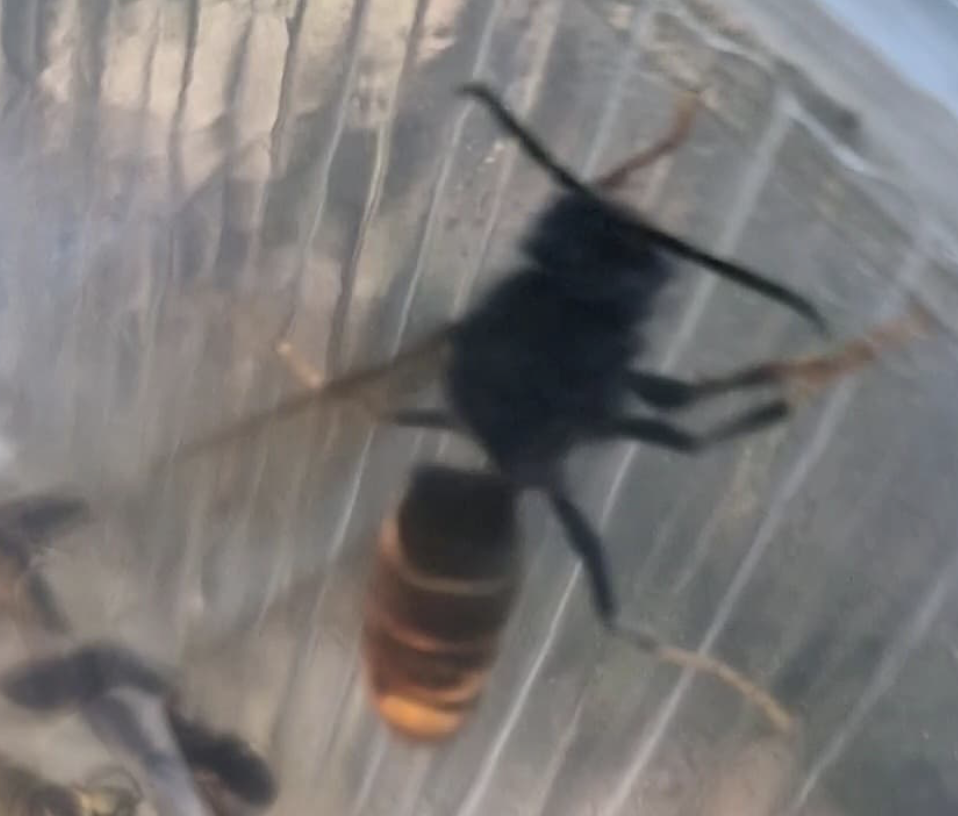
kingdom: Animalia
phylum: Arthropoda
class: Insecta
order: Hymenoptera
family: Vespidae
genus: Vespa
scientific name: Vespa velutina
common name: Asian hornet
